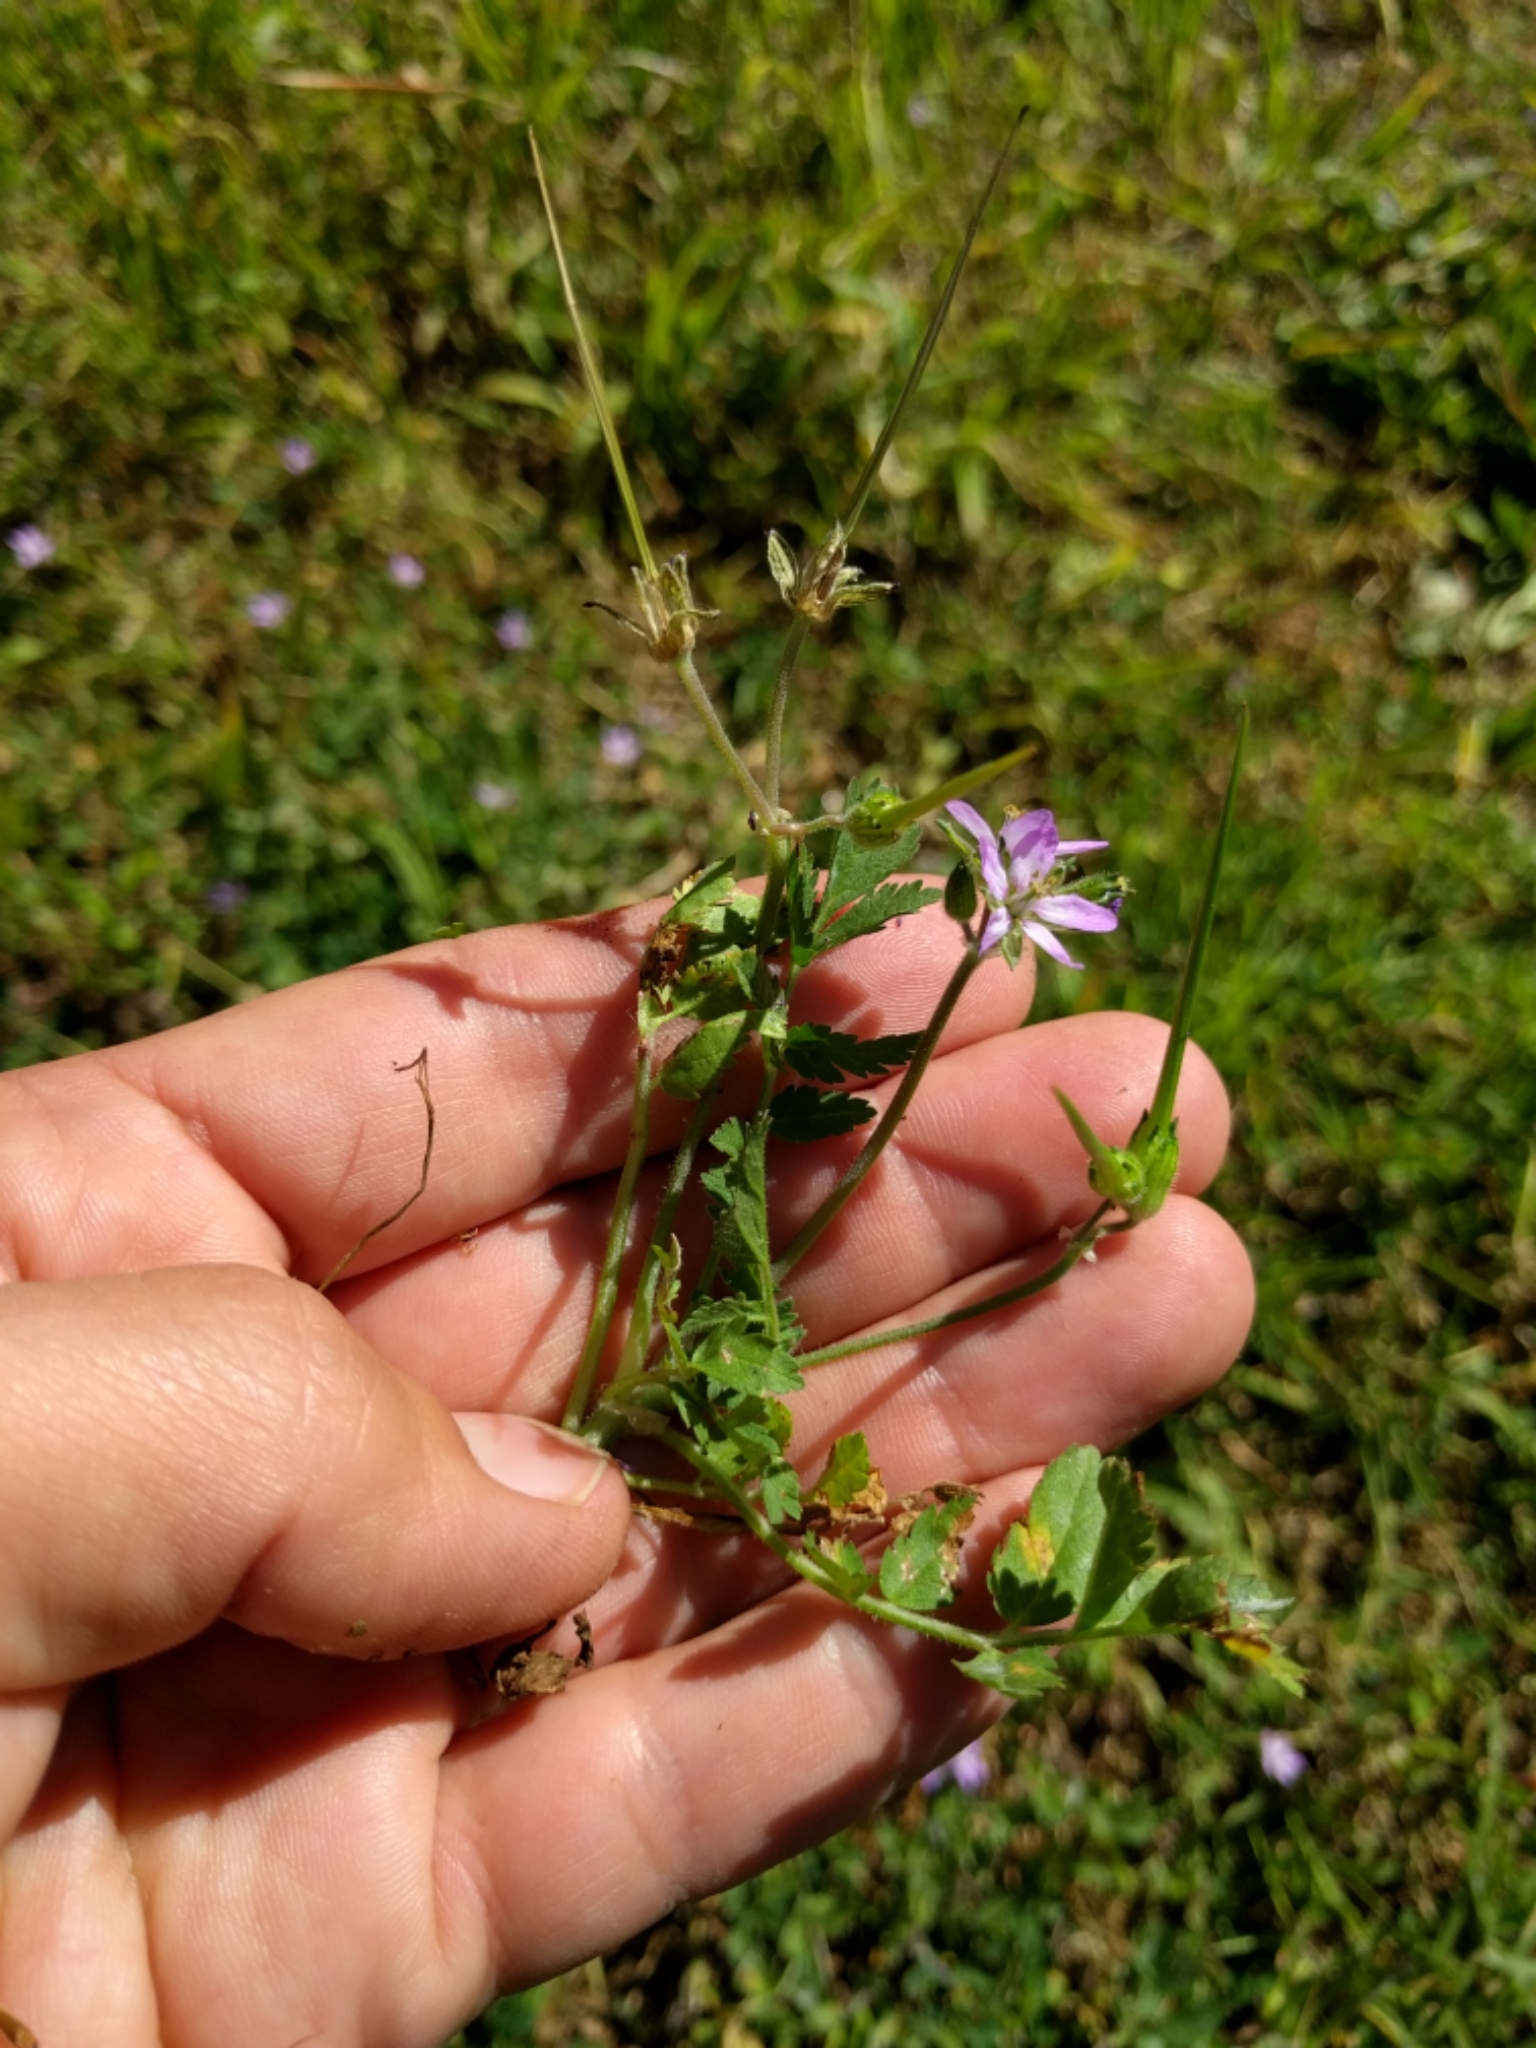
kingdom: Plantae
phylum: Tracheophyta
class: Magnoliopsida
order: Geraniales
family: Geraniaceae
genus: Erodium
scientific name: Erodium moschatum
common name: Musk stork's-bill
